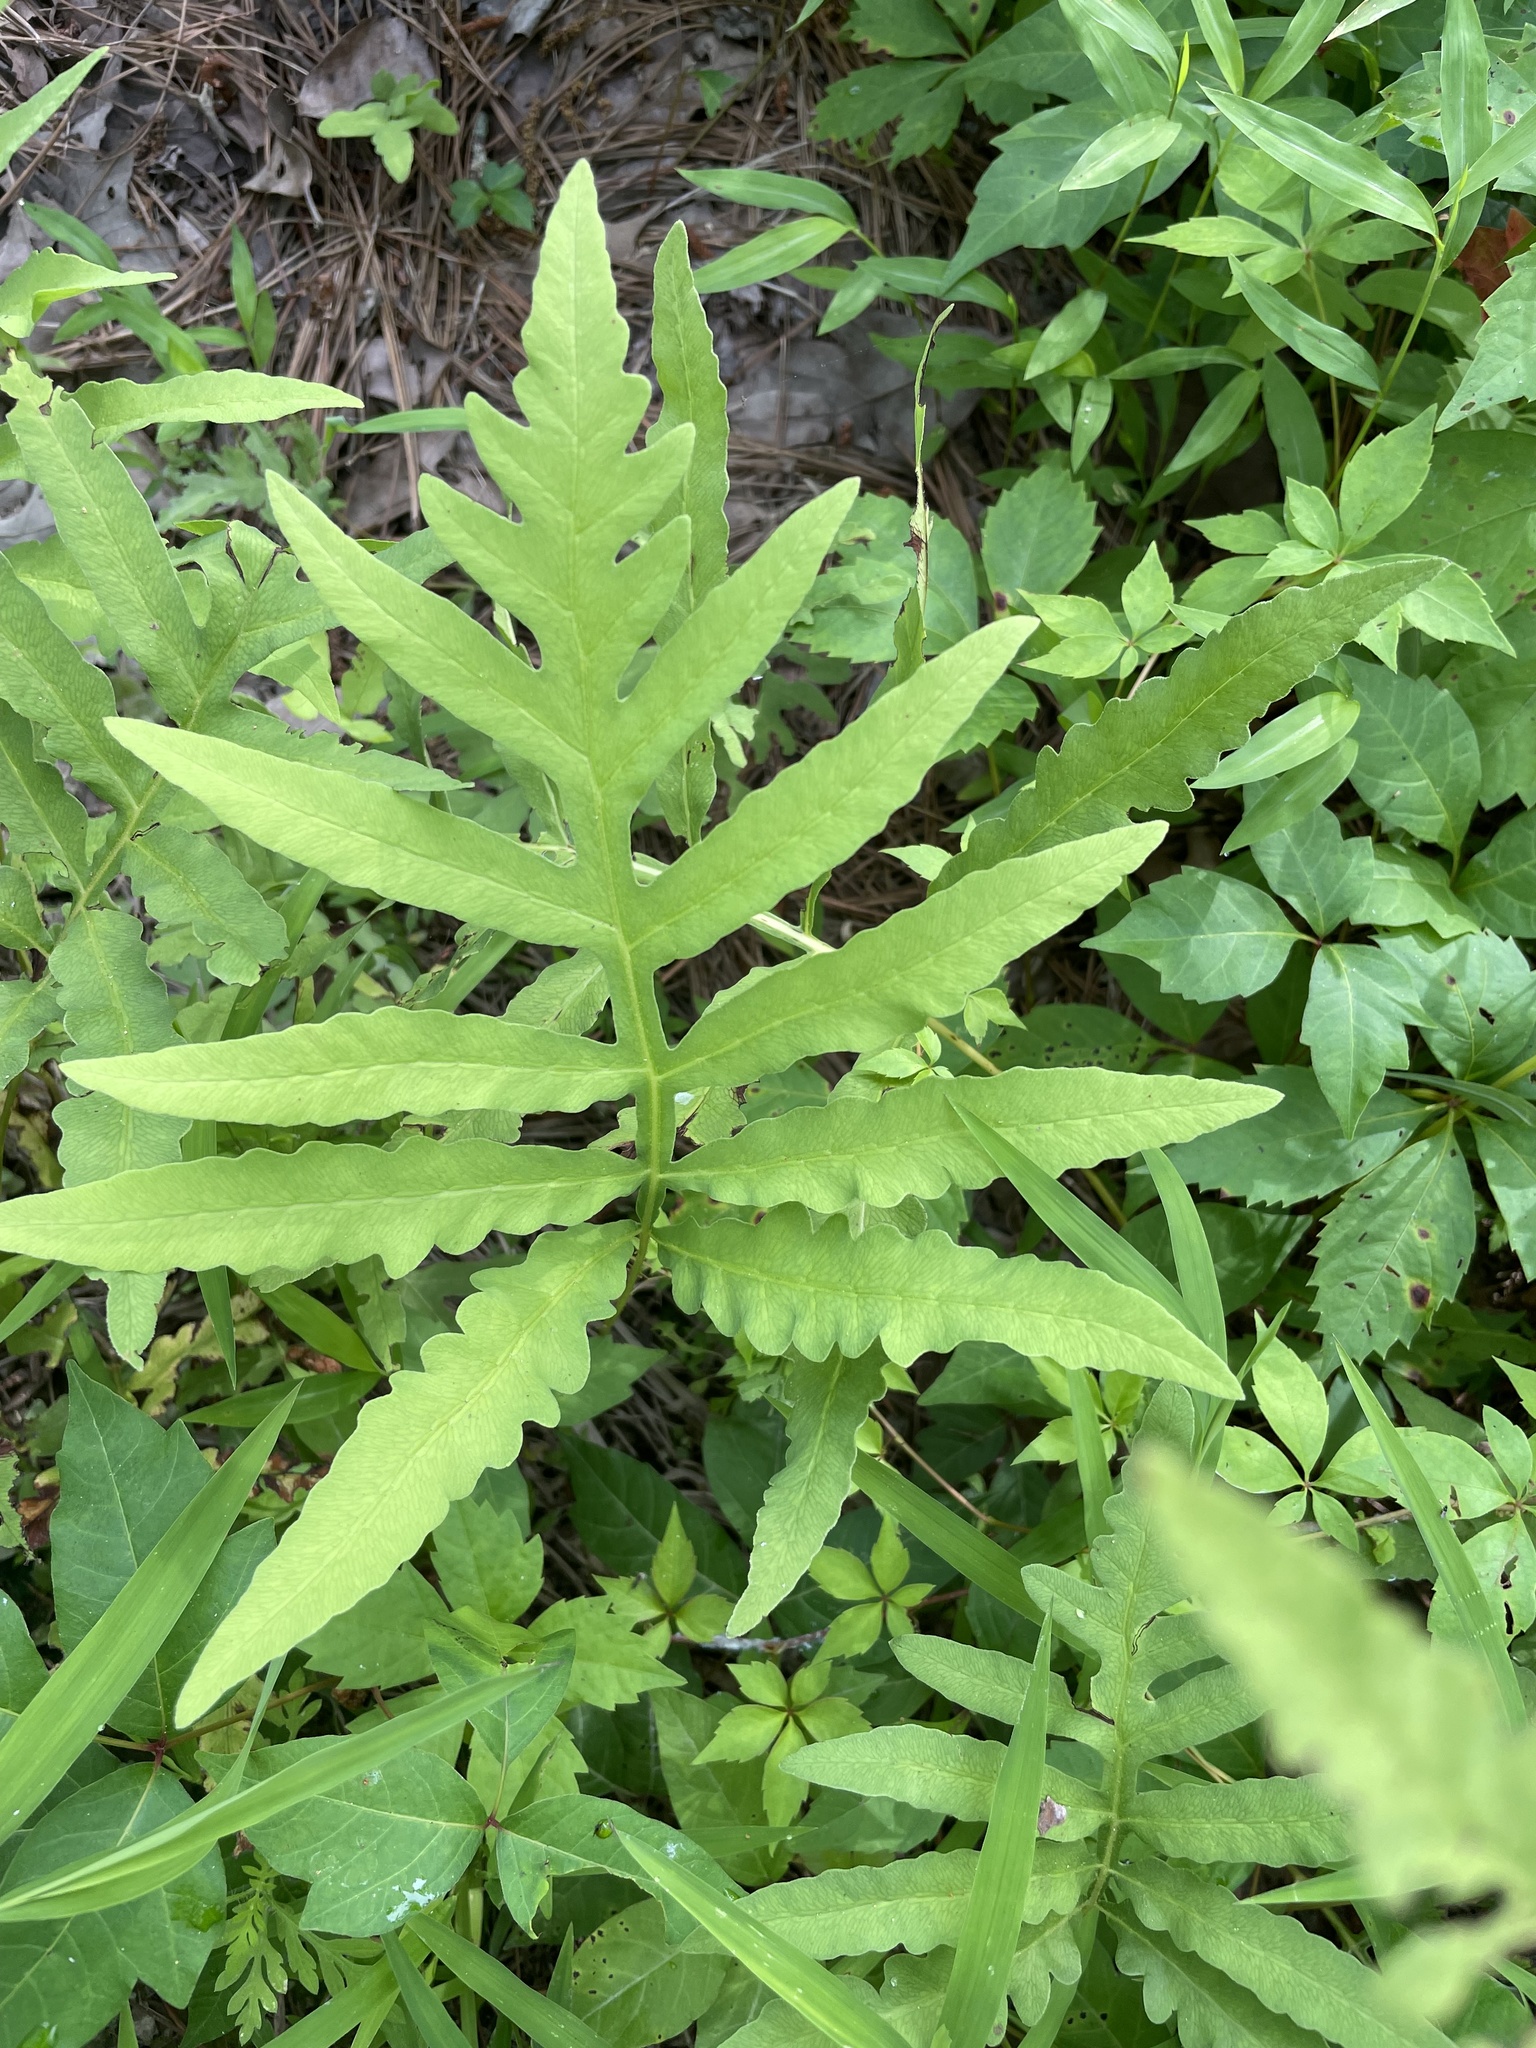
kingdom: Plantae
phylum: Tracheophyta
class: Polypodiopsida
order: Polypodiales
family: Onocleaceae
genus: Onoclea
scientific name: Onoclea sensibilis
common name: Sensitive fern
